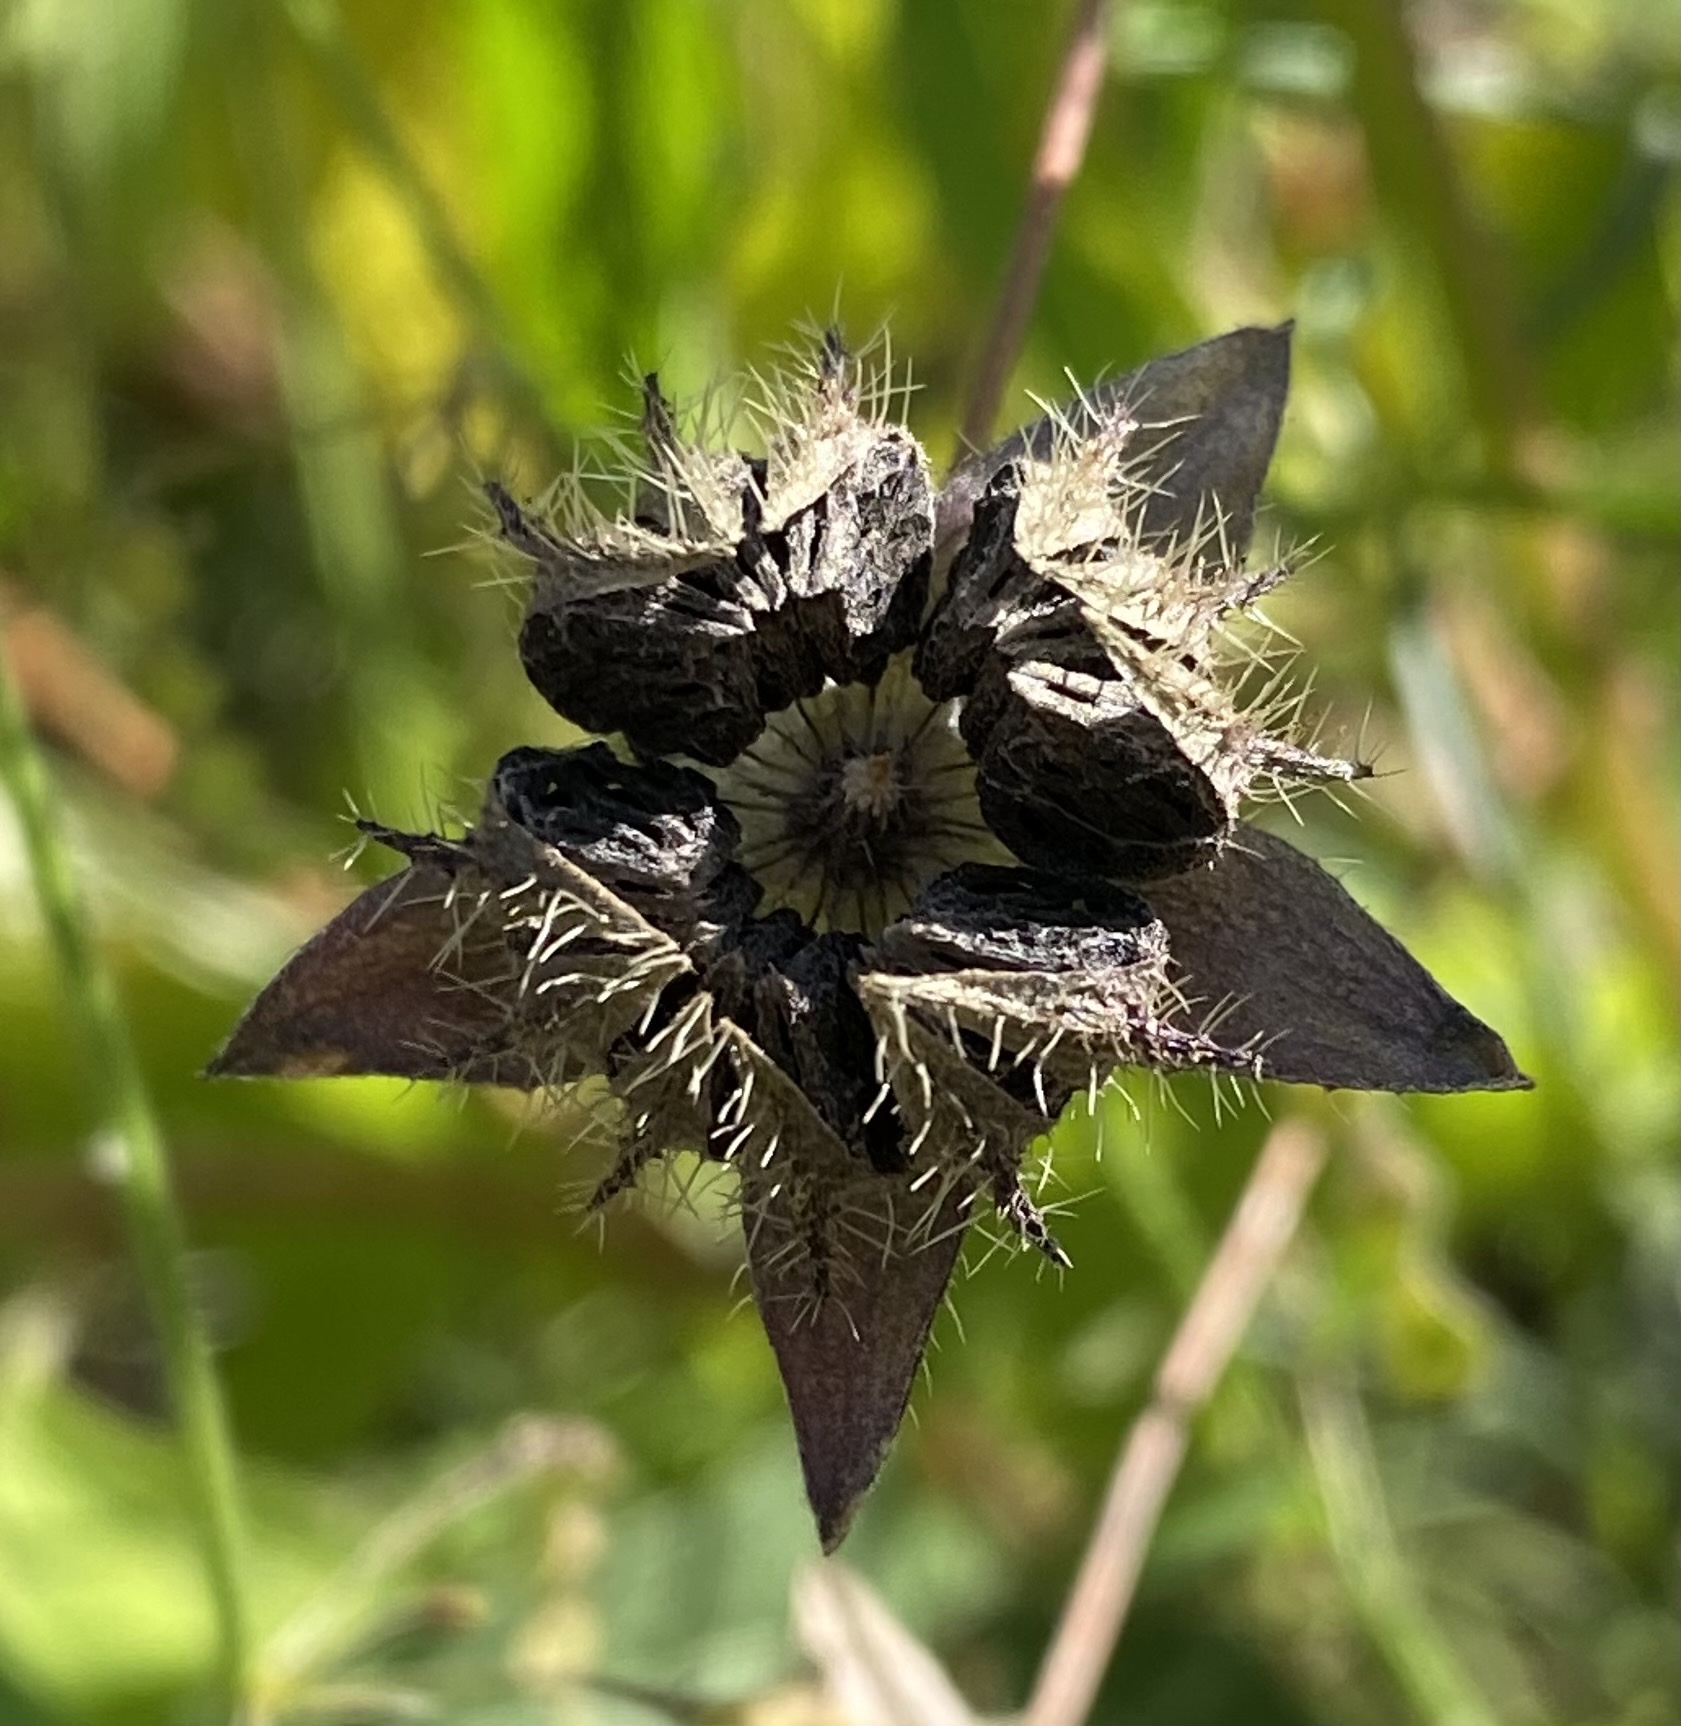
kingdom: Plantae
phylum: Tracheophyta
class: Magnoliopsida
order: Malvales
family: Malvaceae
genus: Anoda
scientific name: Anoda cristata
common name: Spurred anoda
